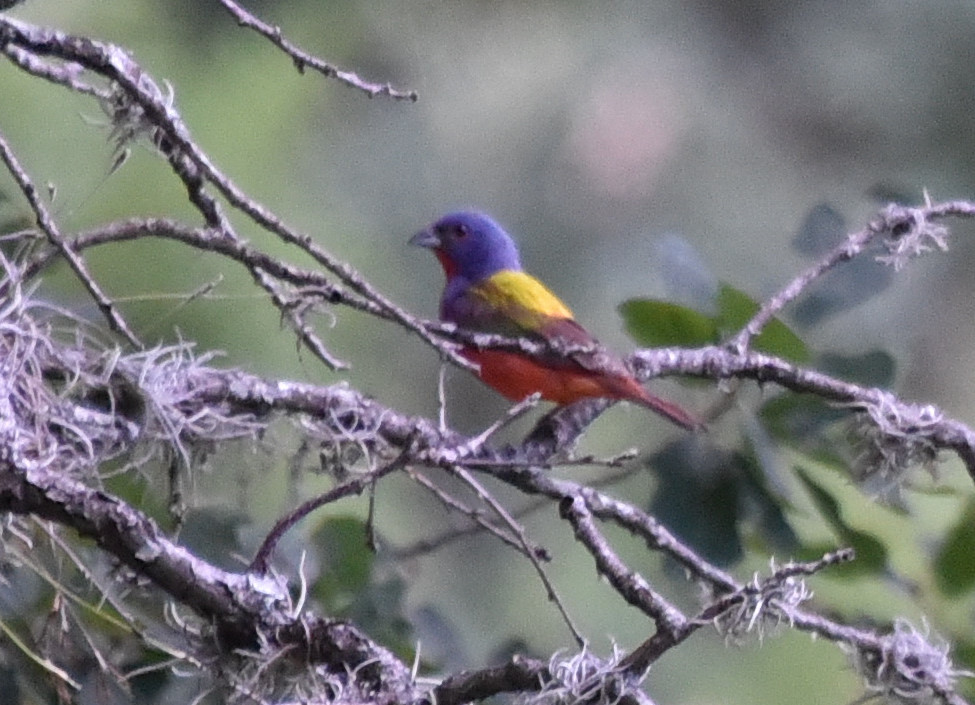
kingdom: Animalia
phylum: Chordata
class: Aves
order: Passeriformes
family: Cardinalidae
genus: Passerina
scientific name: Passerina ciris
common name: Painted bunting
